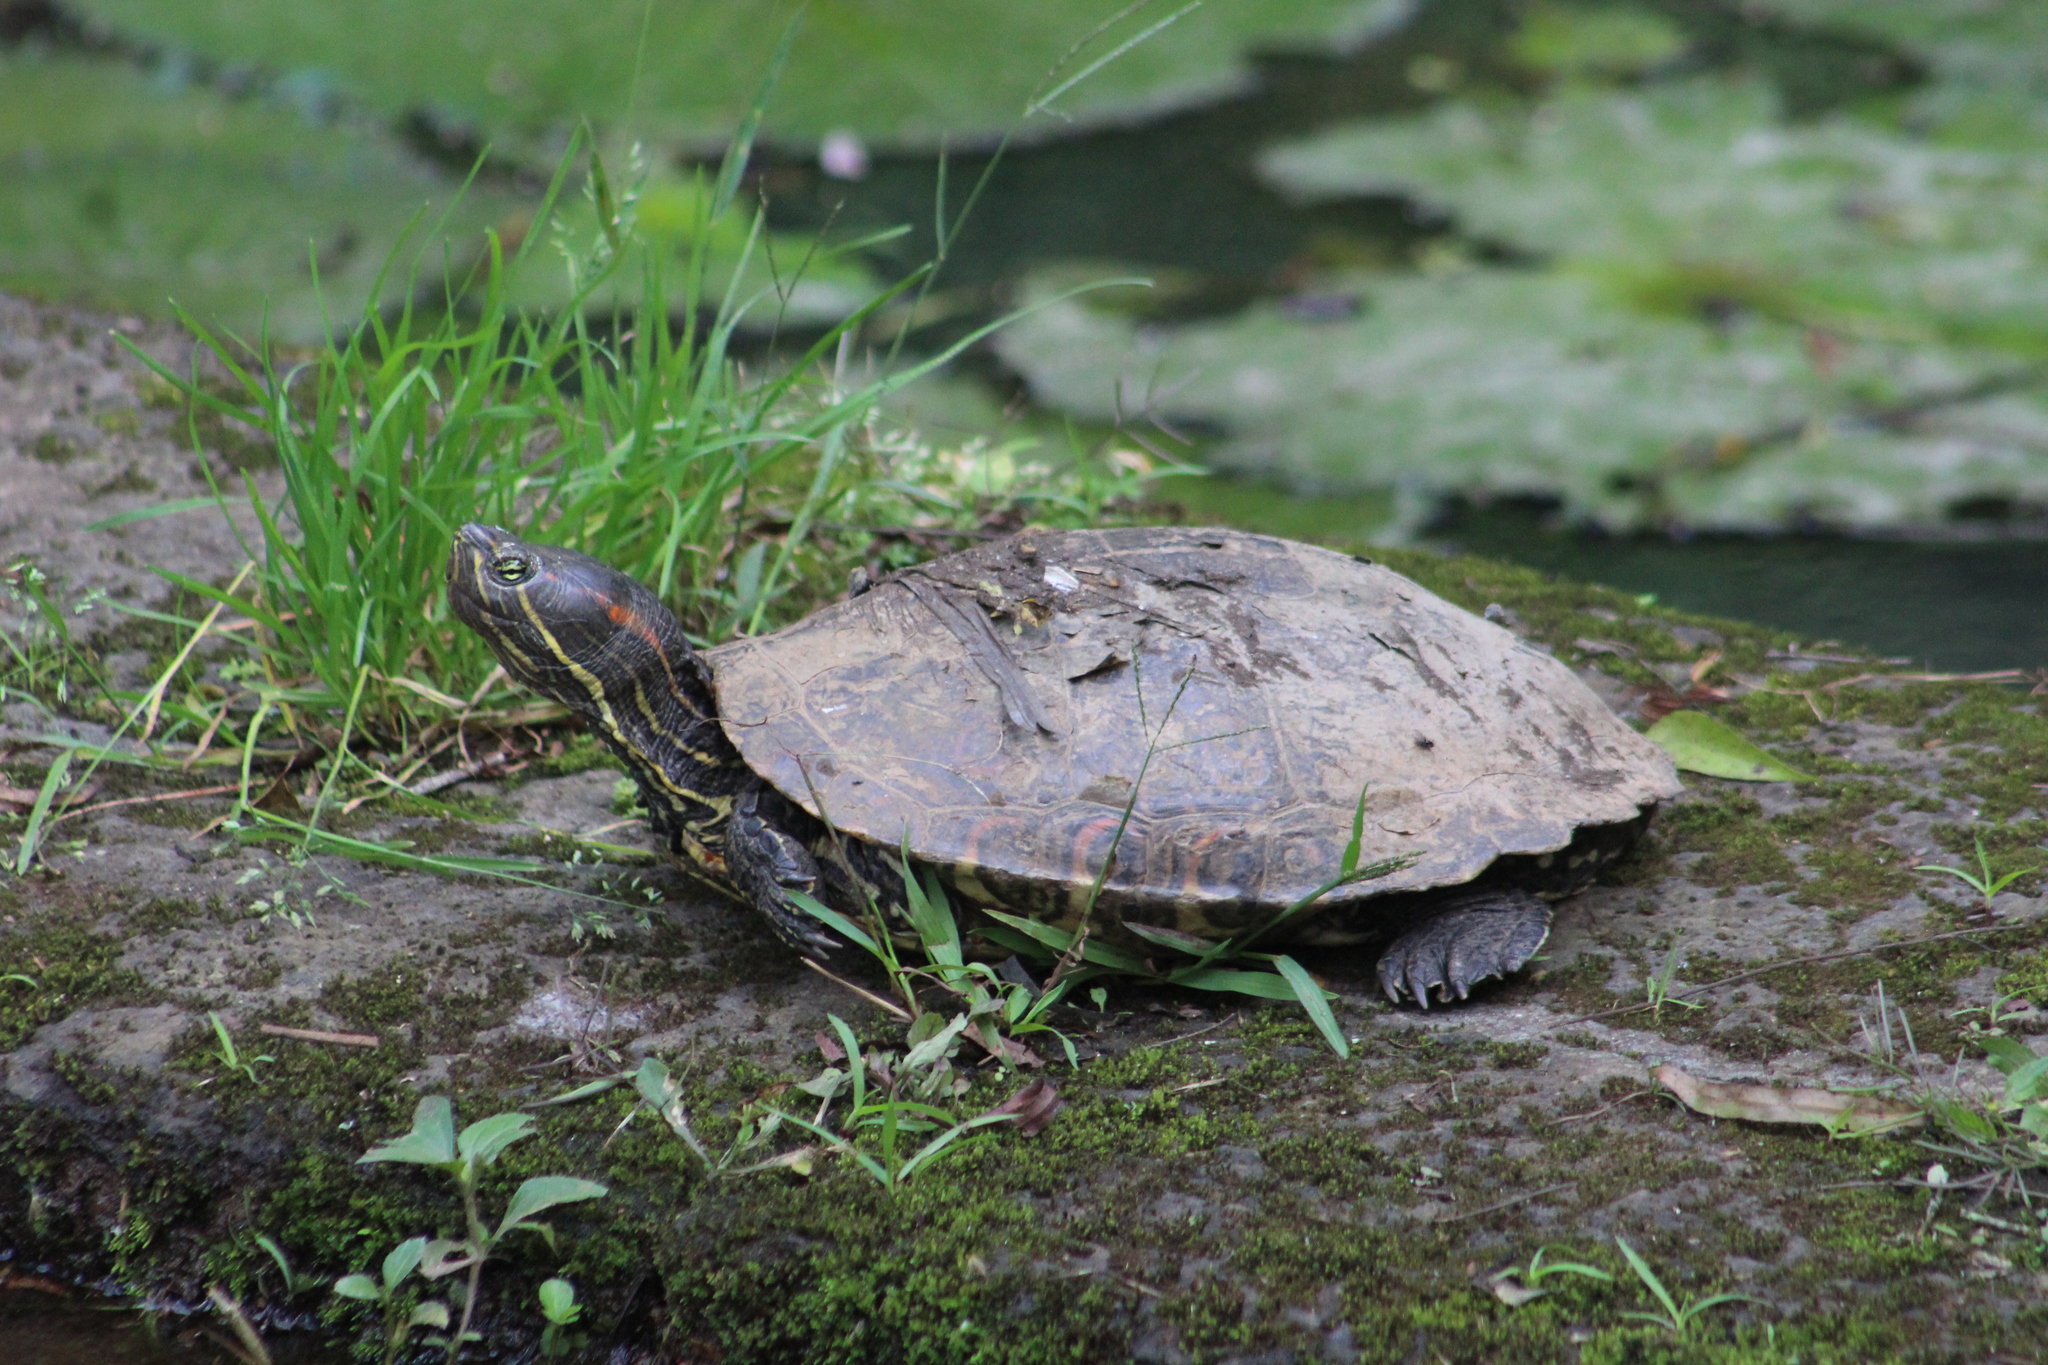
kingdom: Animalia
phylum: Chordata
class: Testudines
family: Emydidae
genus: Trachemys
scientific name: Trachemys venusta
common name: Mesoamerican slider
